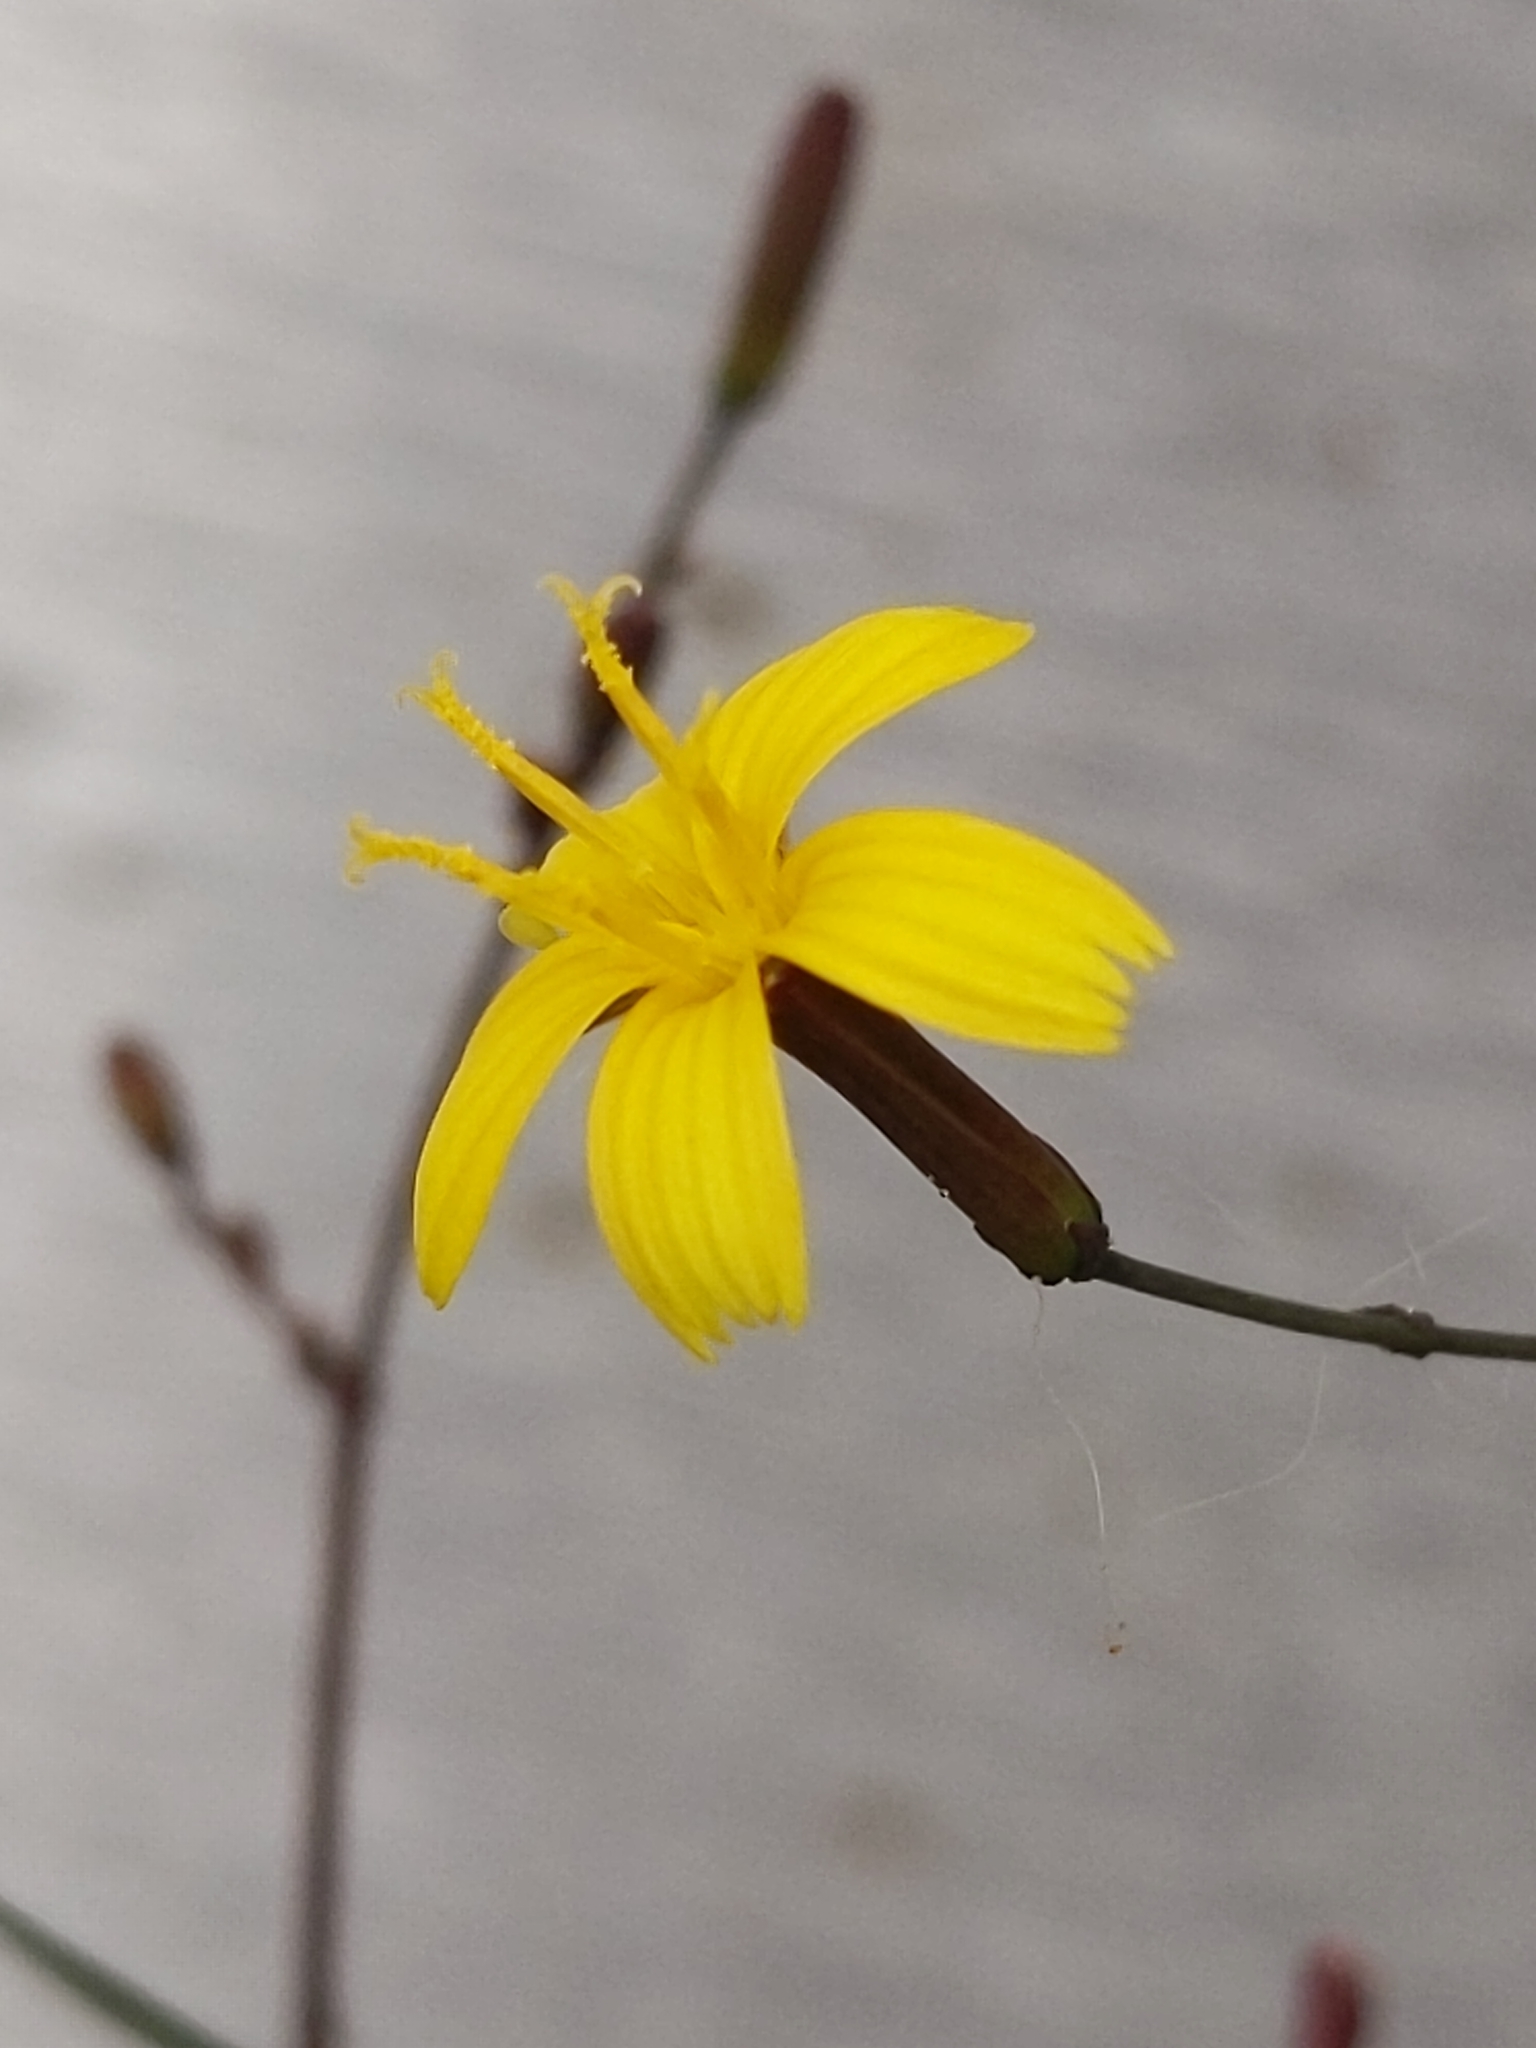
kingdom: Plantae
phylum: Tracheophyta
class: Magnoliopsida
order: Asterales
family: Asteraceae
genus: Mycelis
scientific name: Mycelis muralis
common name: Wall lettuce
